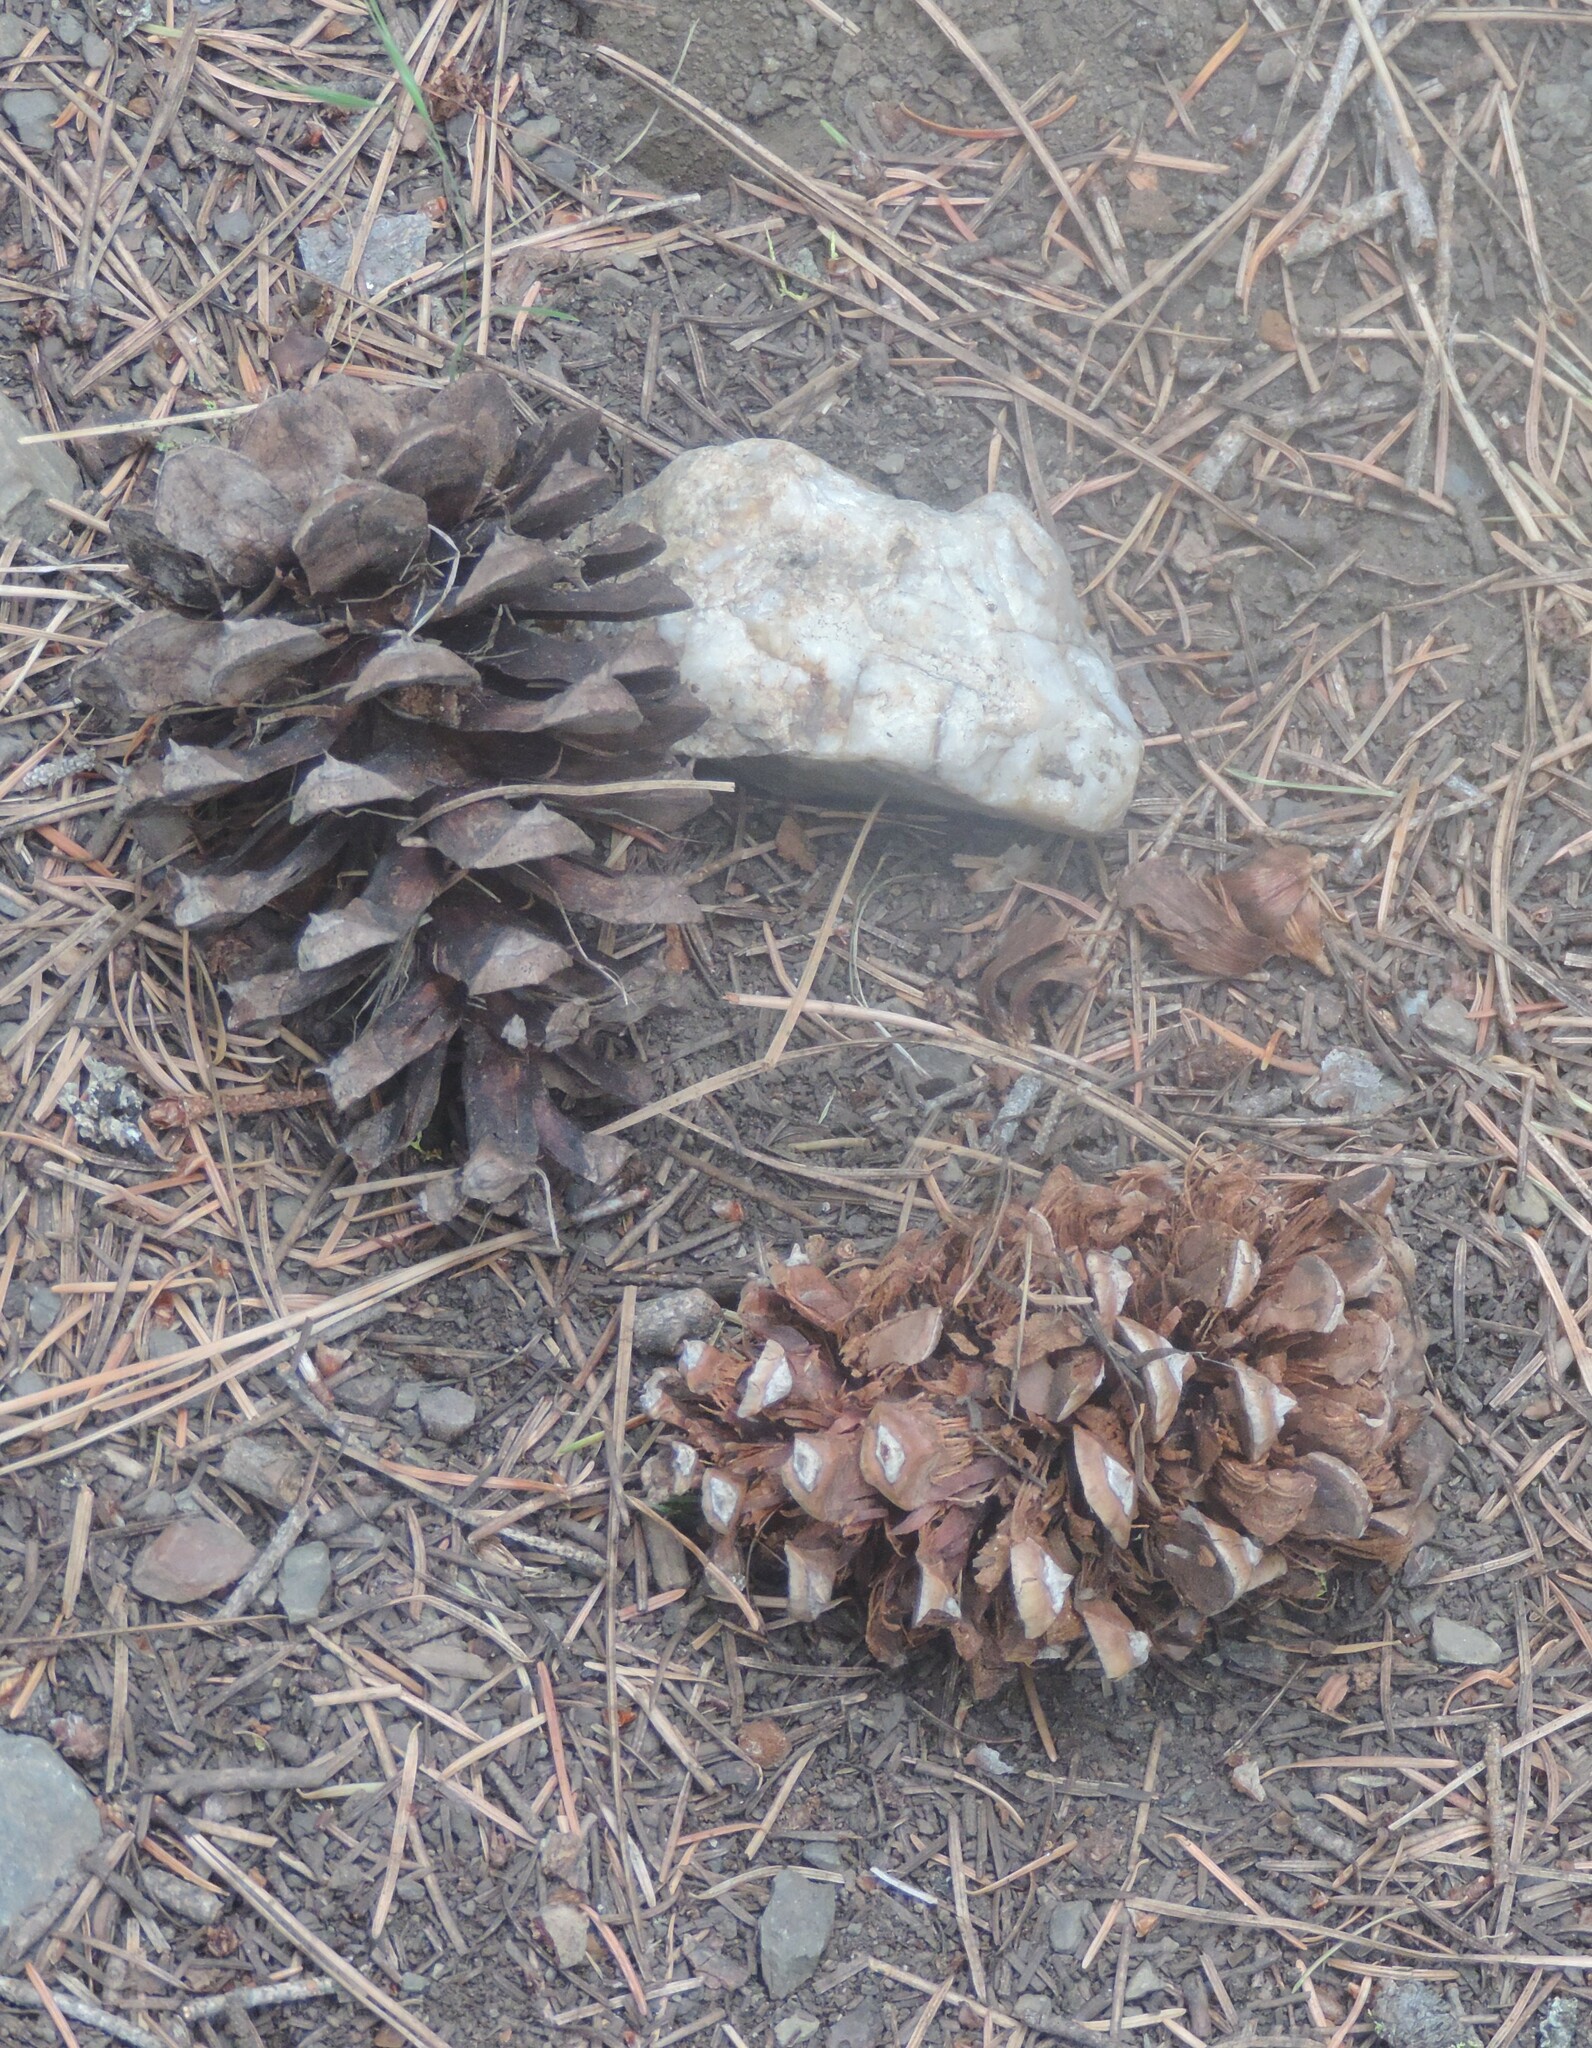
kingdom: Plantae
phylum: Tracheophyta
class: Pinopsida
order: Pinales
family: Pinaceae
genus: Pinus
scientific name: Pinus ponderosa
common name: Western yellow-pine
